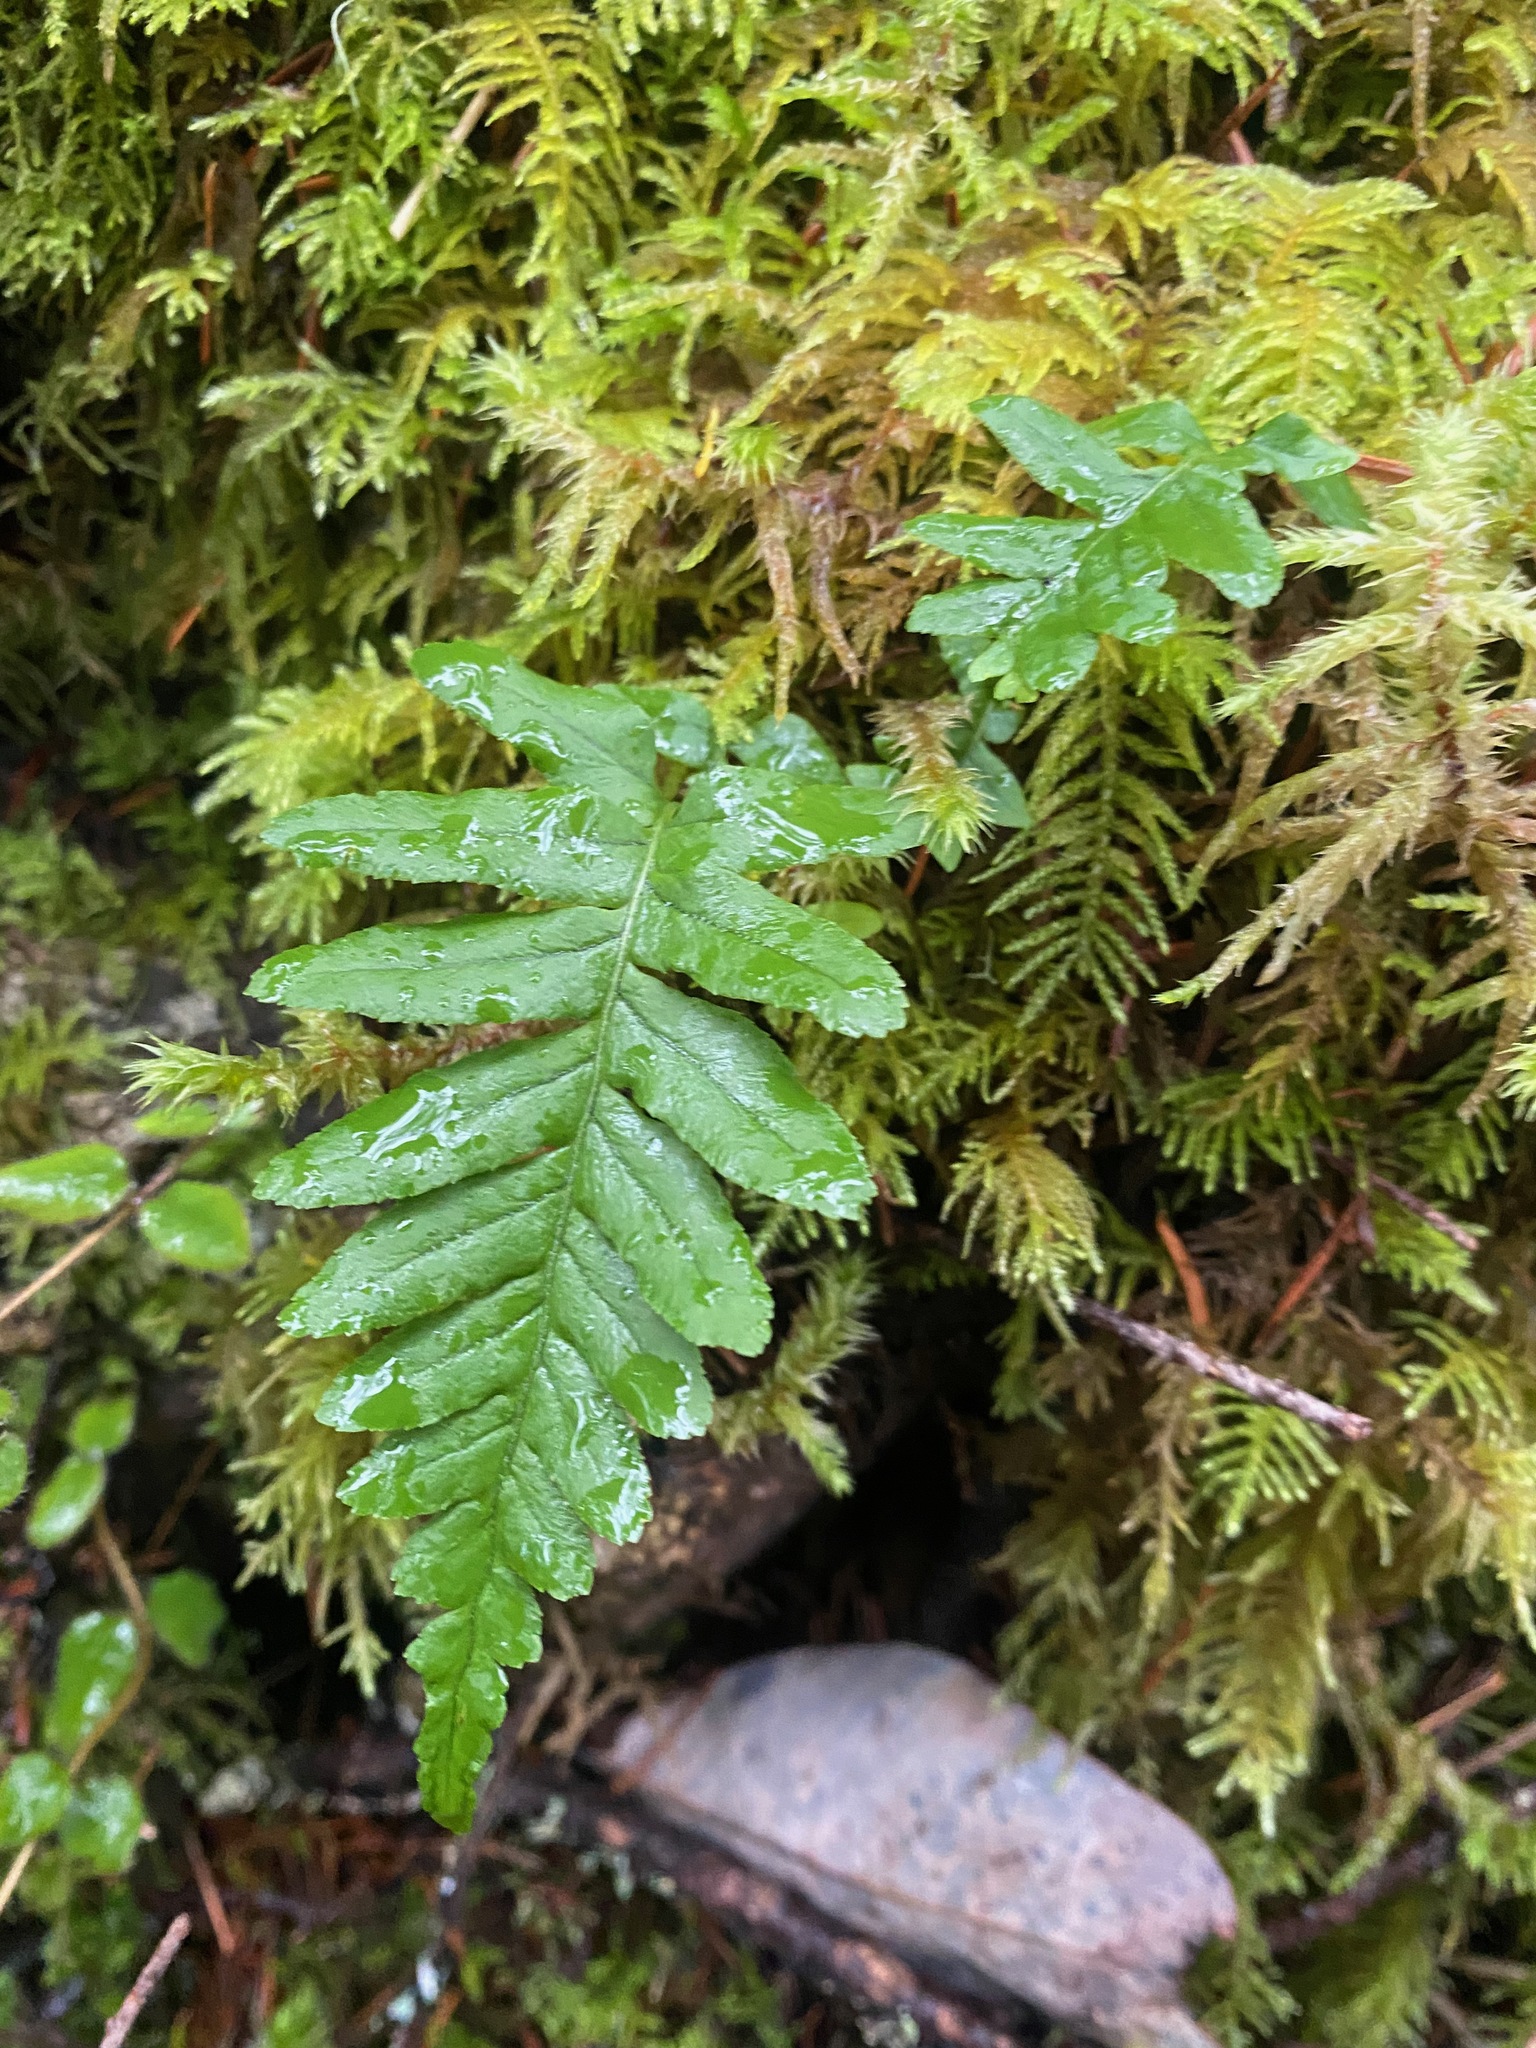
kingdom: Plantae
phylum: Tracheophyta
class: Polypodiopsida
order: Polypodiales
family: Polypodiaceae
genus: Polypodium
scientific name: Polypodium glycyrrhiza
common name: Licorice fern
